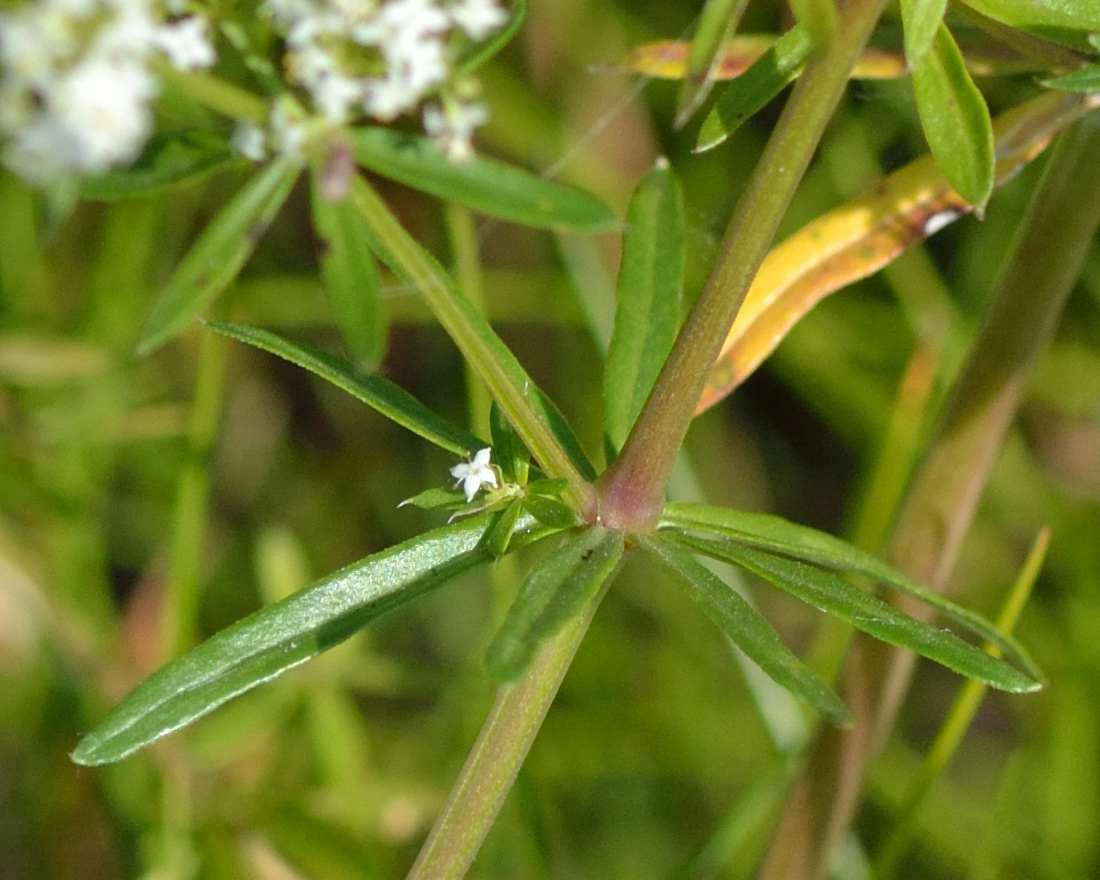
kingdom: Plantae
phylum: Tracheophyta
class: Magnoliopsida
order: Gentianales
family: Rubiaceae
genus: Galium
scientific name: Galium mollugo
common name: Hedge bedstraw
